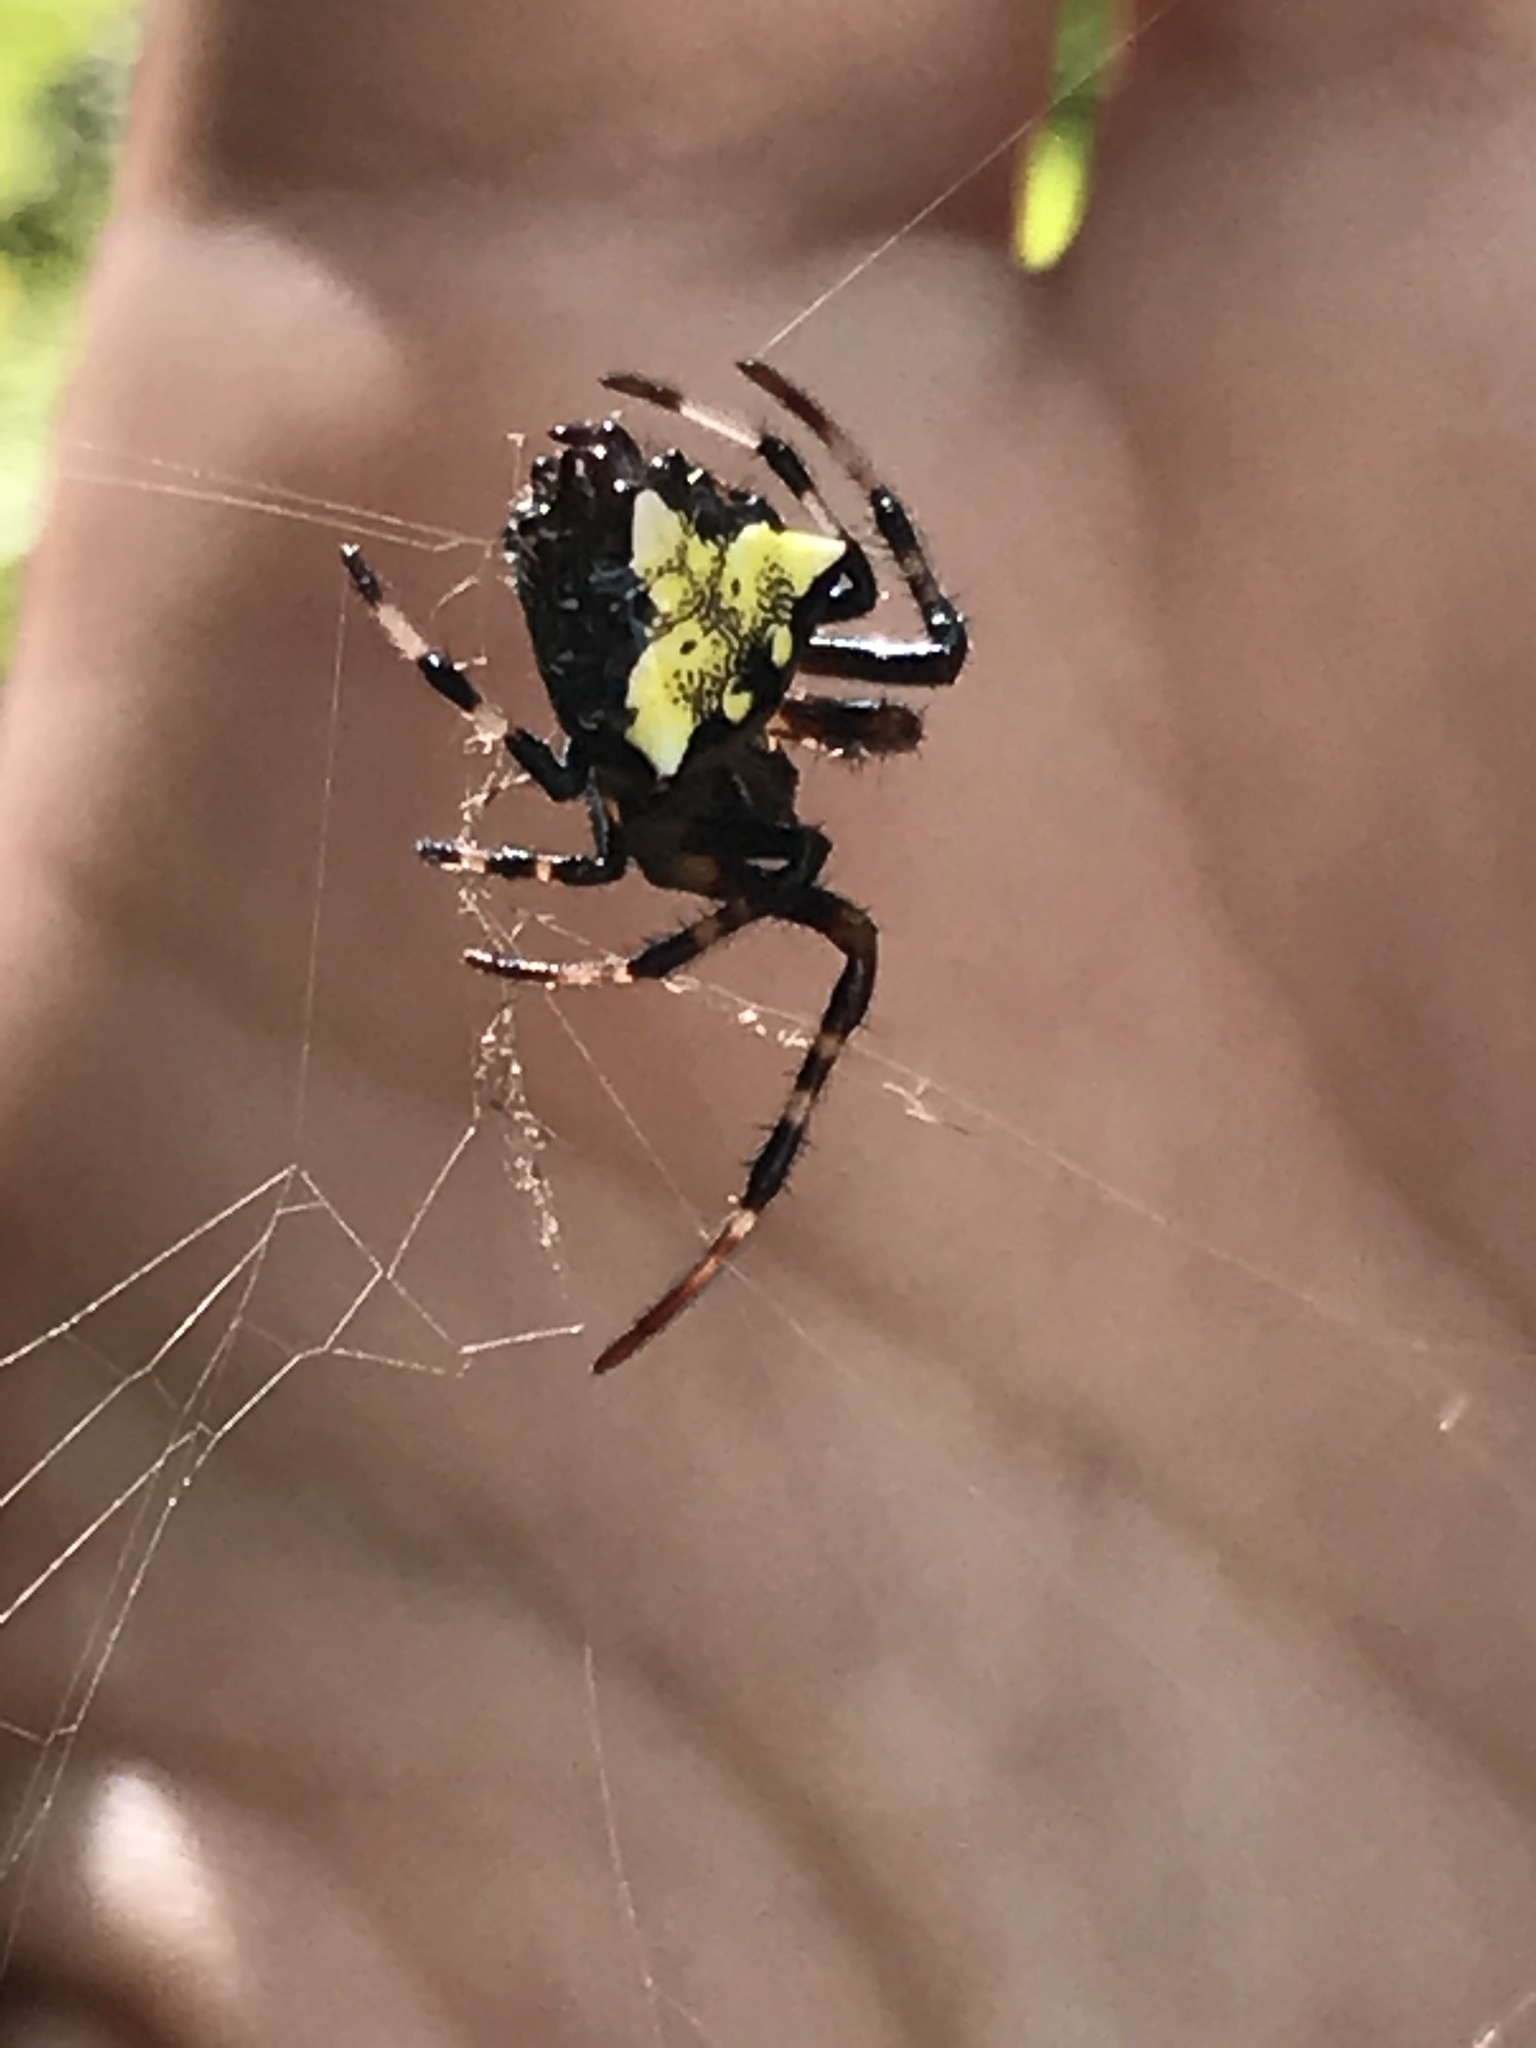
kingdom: Animalia
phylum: Arthropoda
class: Arachnida
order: Araneae
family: Araneidae
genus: Verrucosa
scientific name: Verrucosa arenata
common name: Orb weavers
